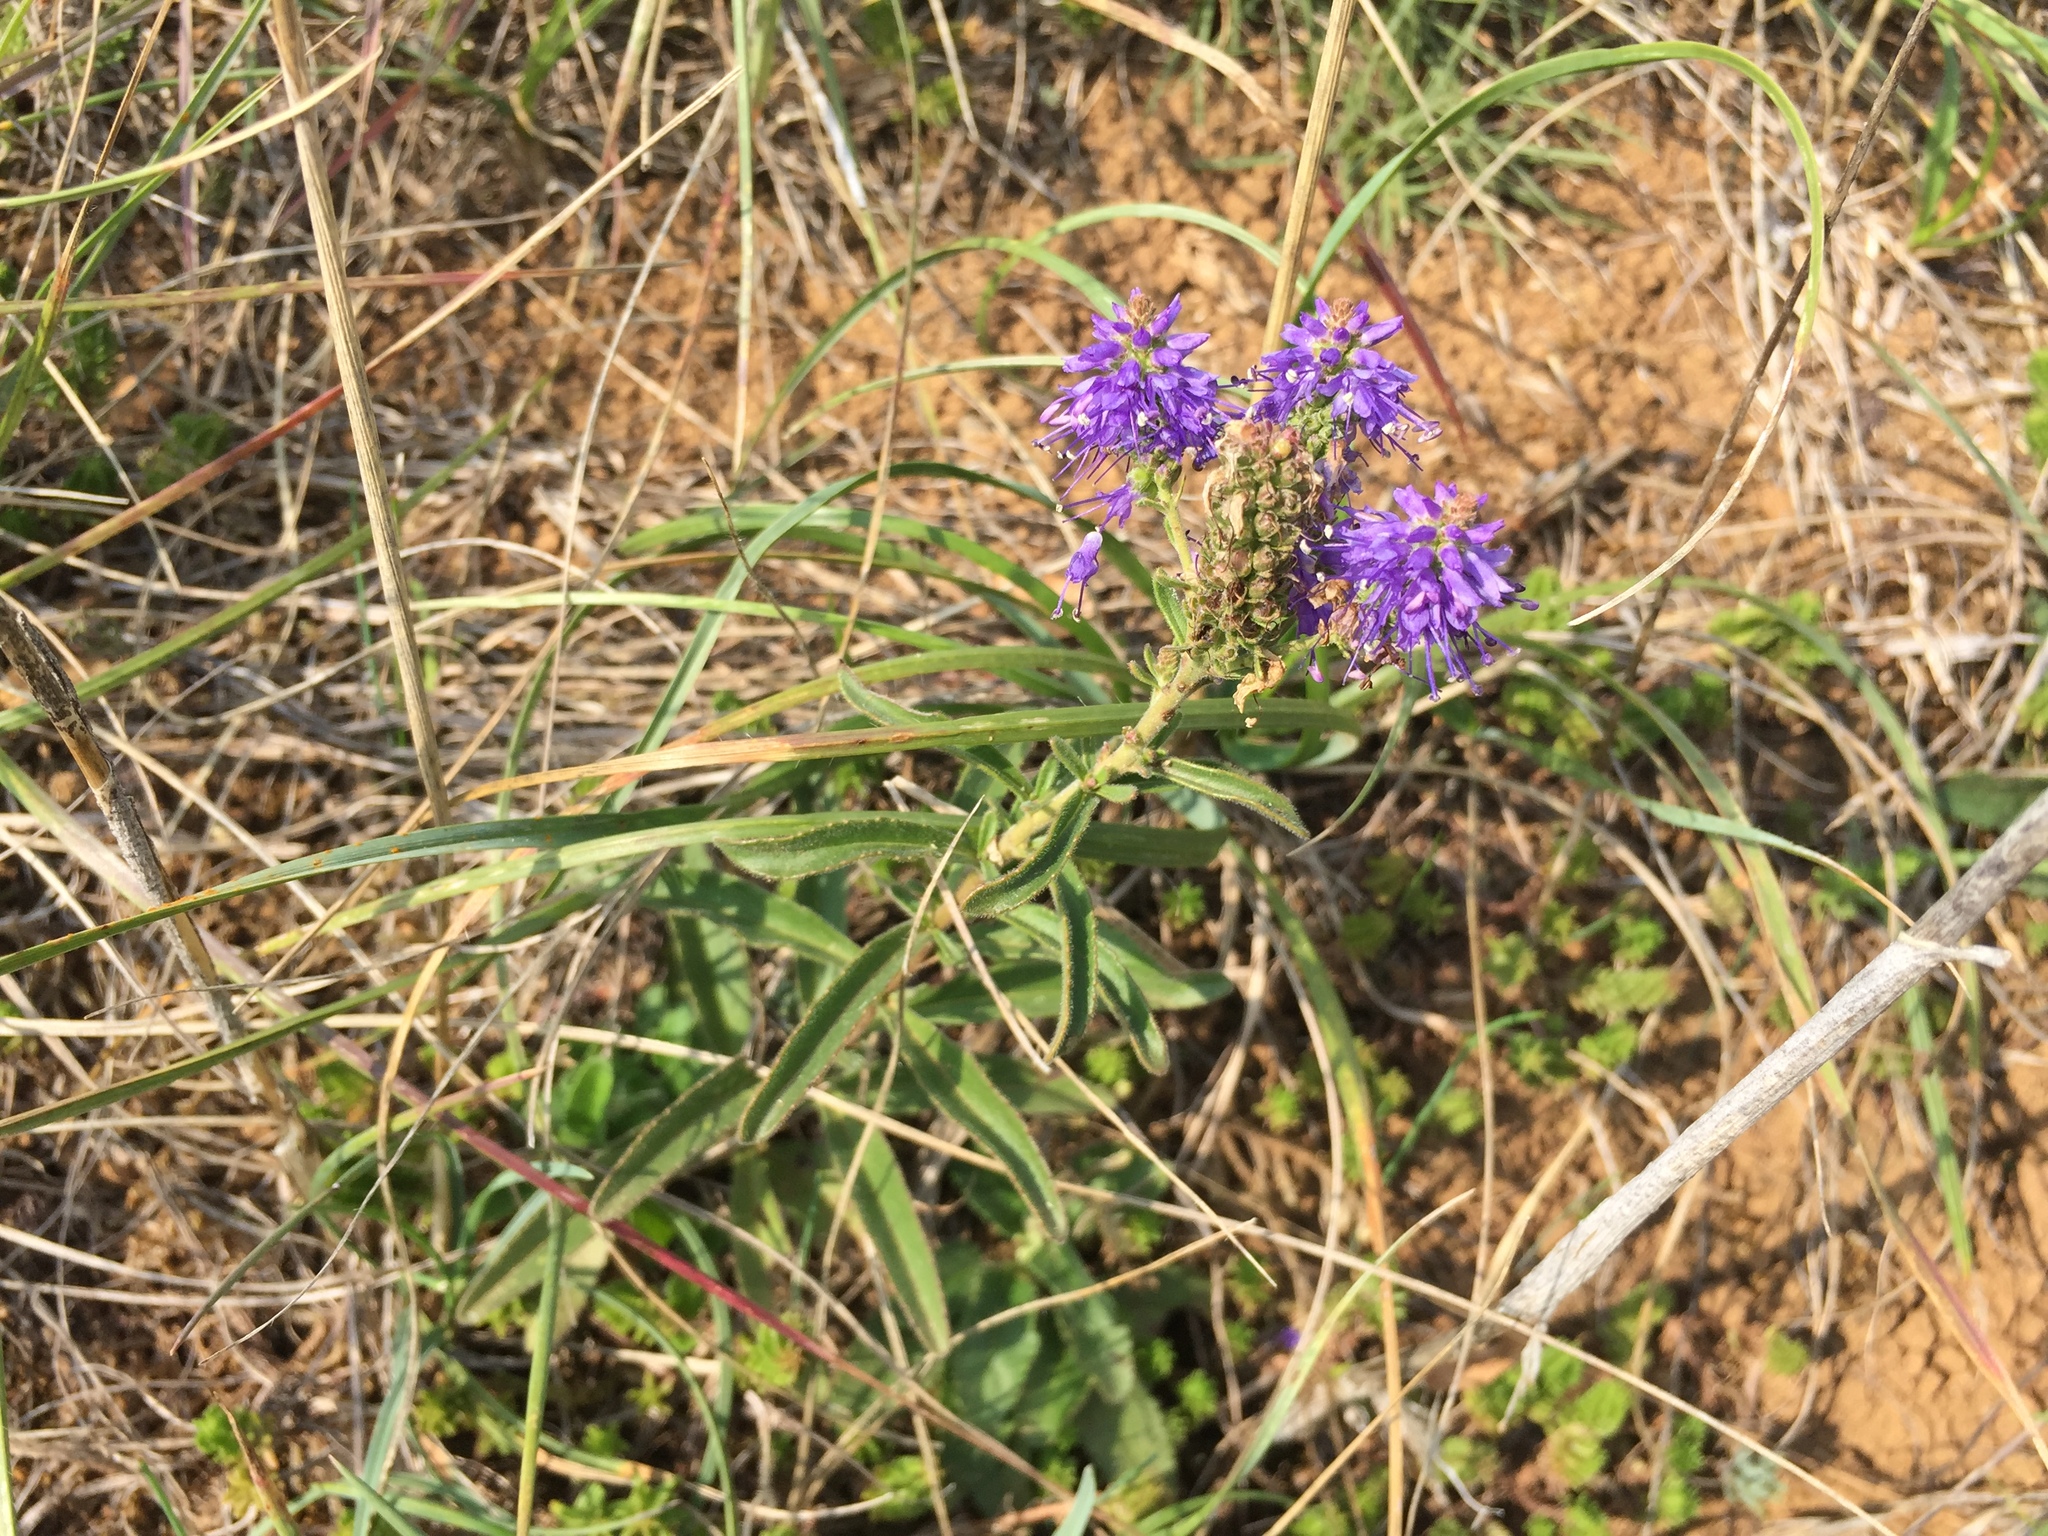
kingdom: Plantae
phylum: Tracheophyta
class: Magnoliopsida
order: Lamiales
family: Plantaginaceae
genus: Veronica
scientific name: Veronica spicata
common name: Spiked speedwell
